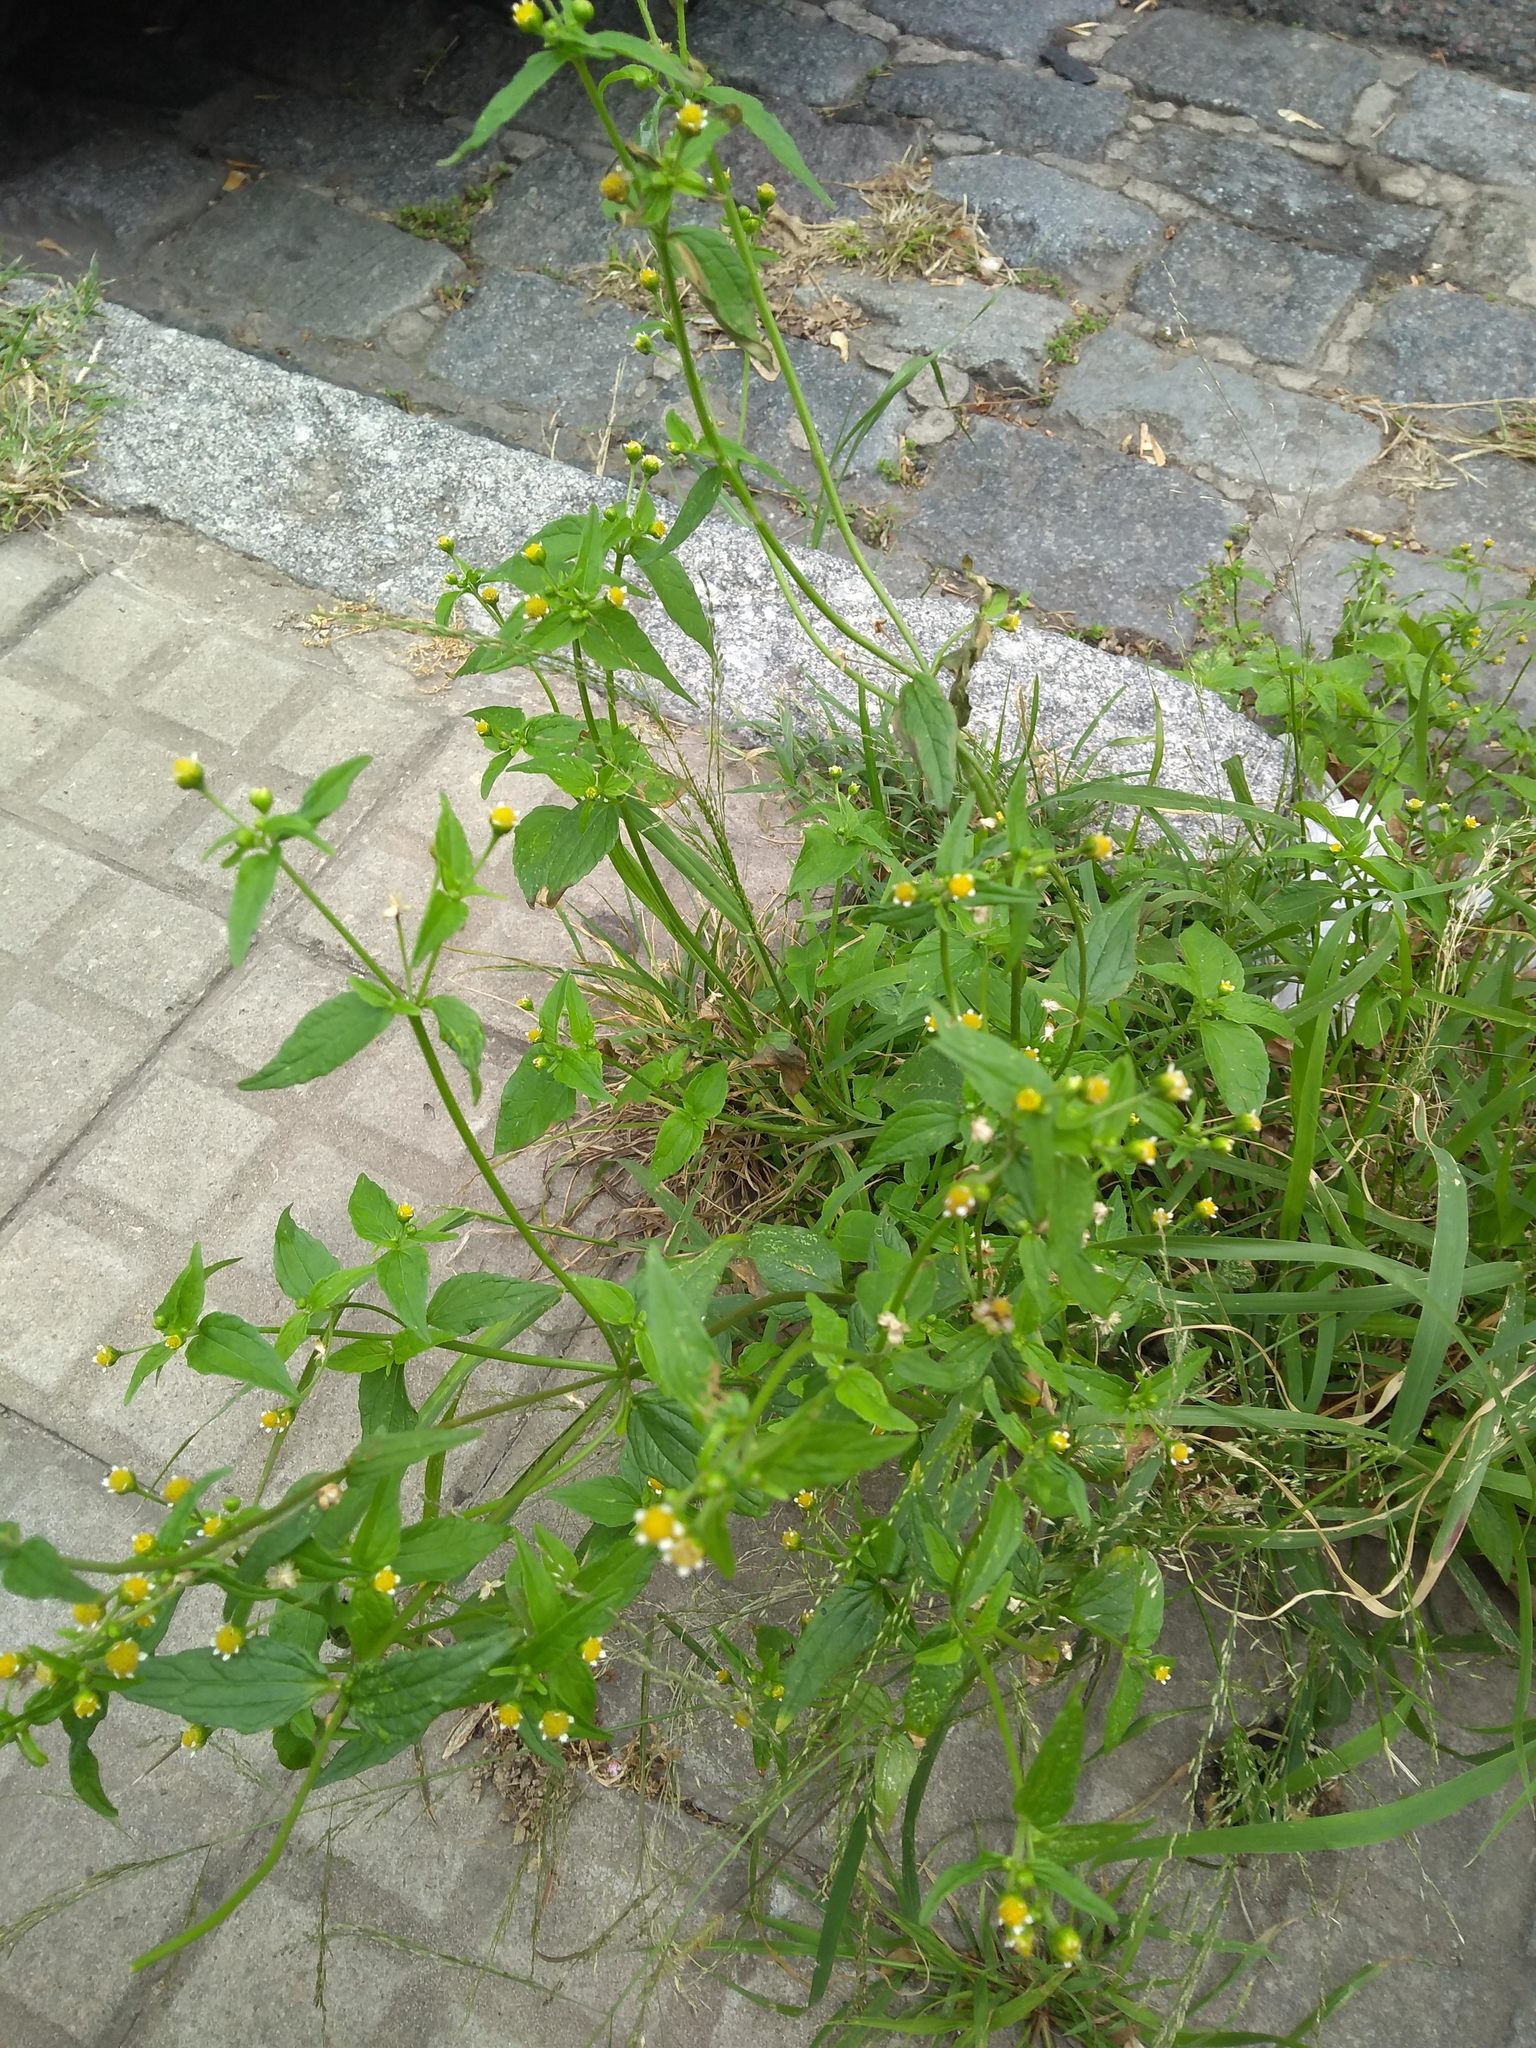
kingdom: Plantae
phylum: Tracheophyta
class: Magnoliopsida
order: Asterales
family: Asteraceae
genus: Galinsoga
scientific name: Galinsoga parviflora
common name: Gallant soldier
